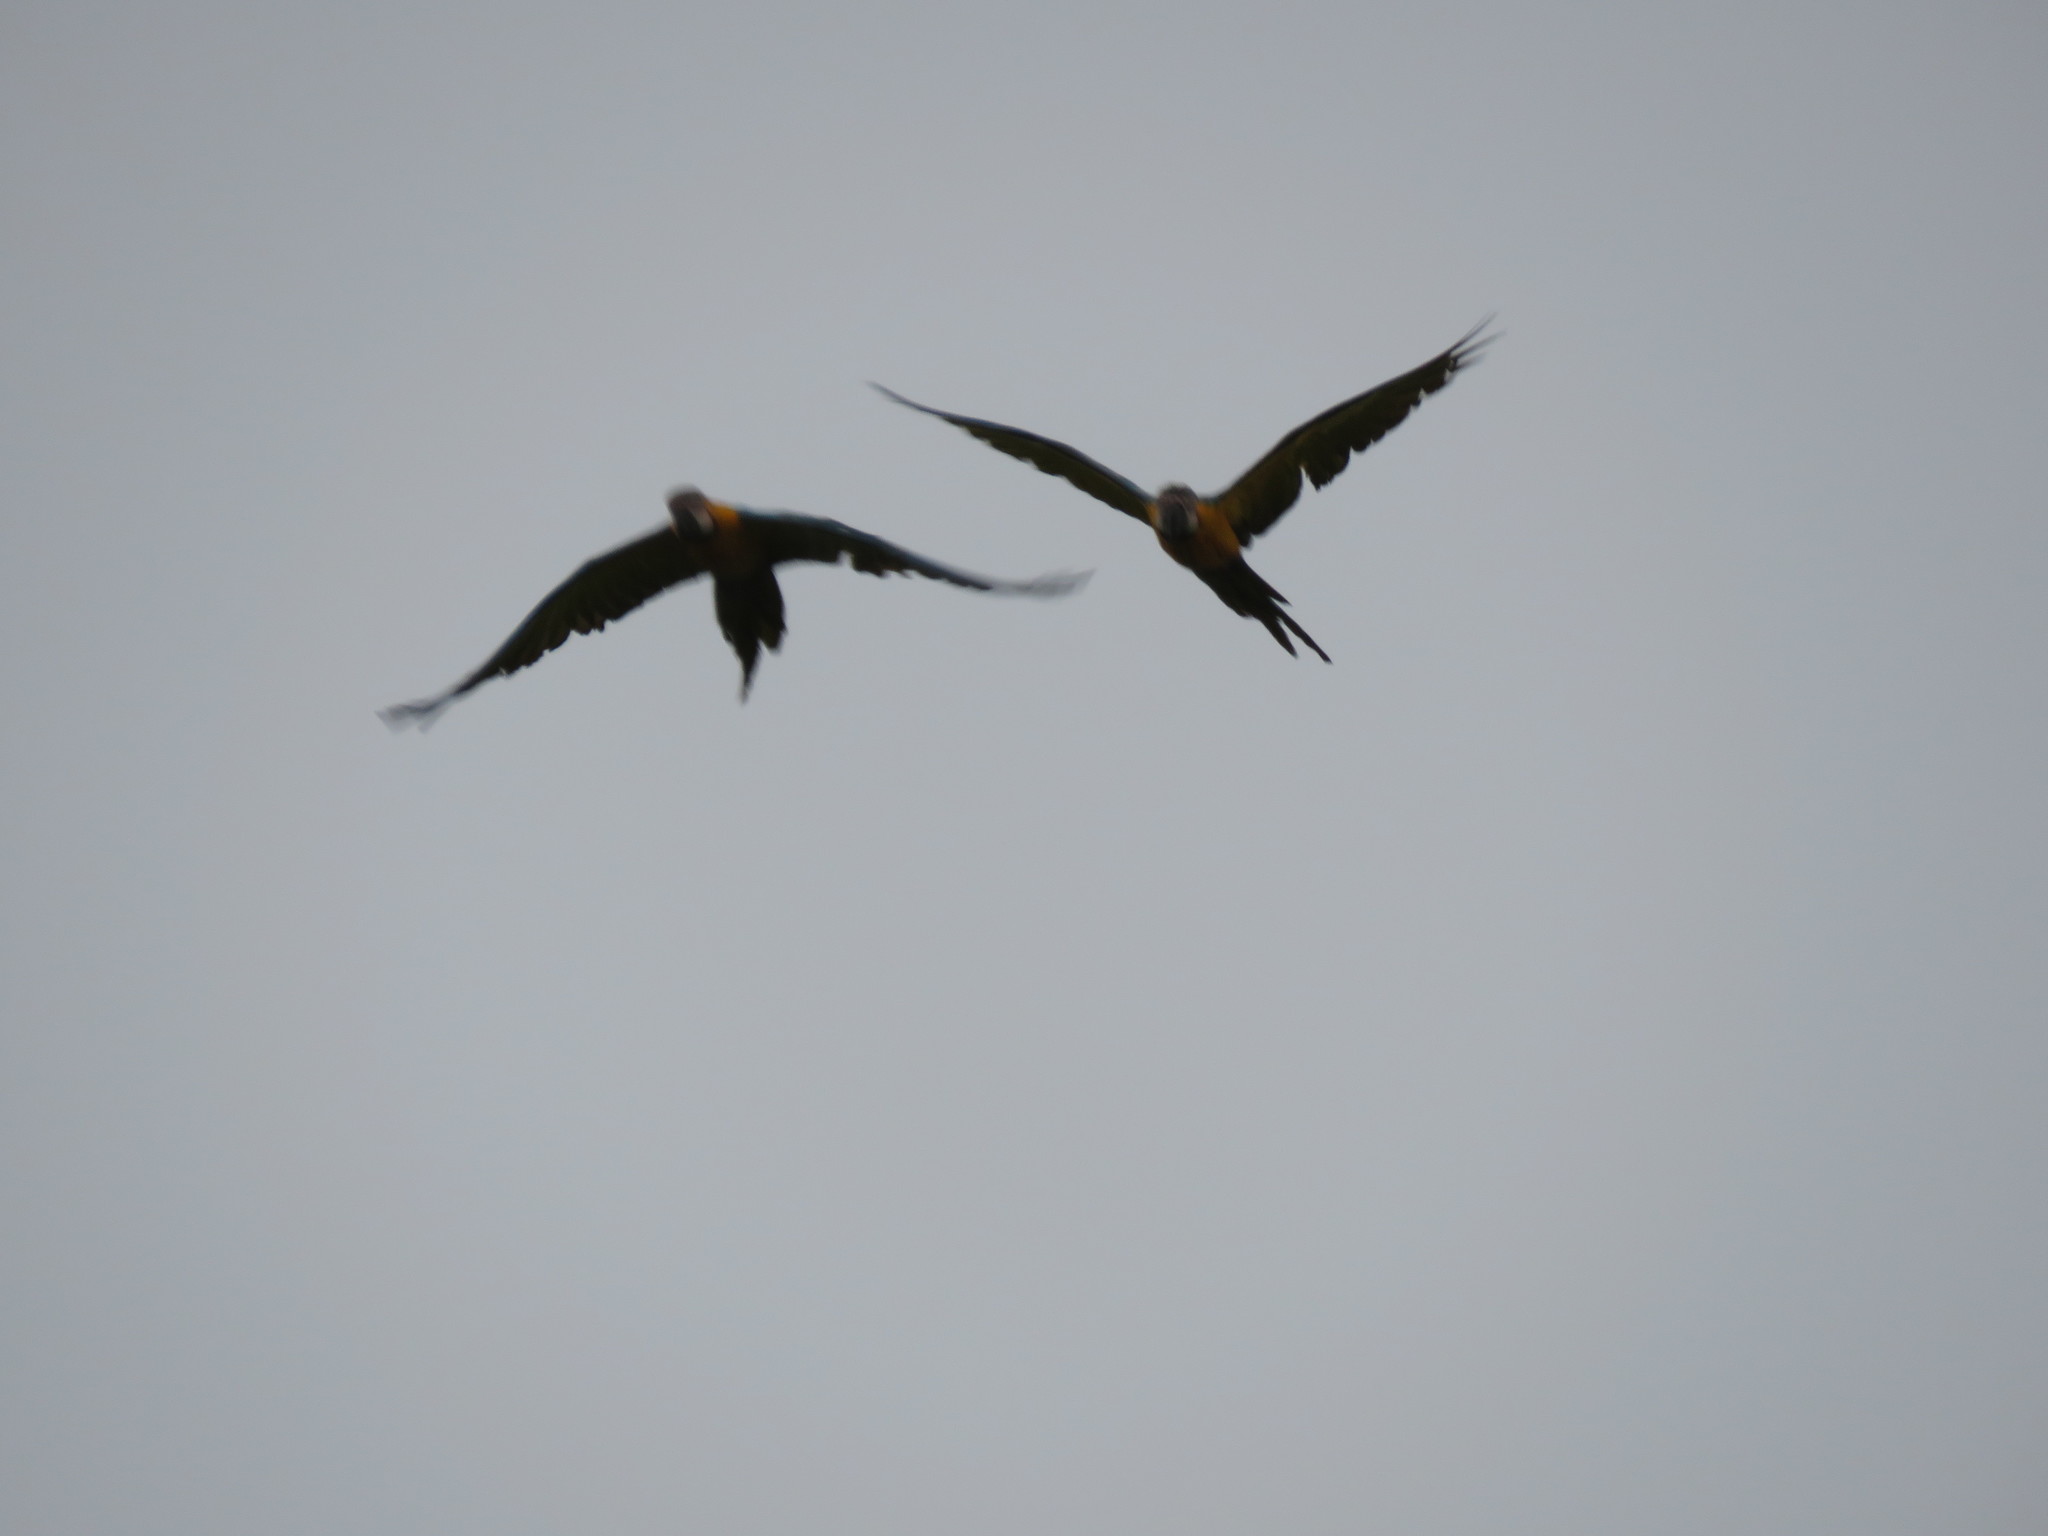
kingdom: Animalia
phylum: Chordata
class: Aves
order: Psittaciformes
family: Psittacidae
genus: Ara
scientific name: Ara ararauna
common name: Blue-and-yellow macaw
